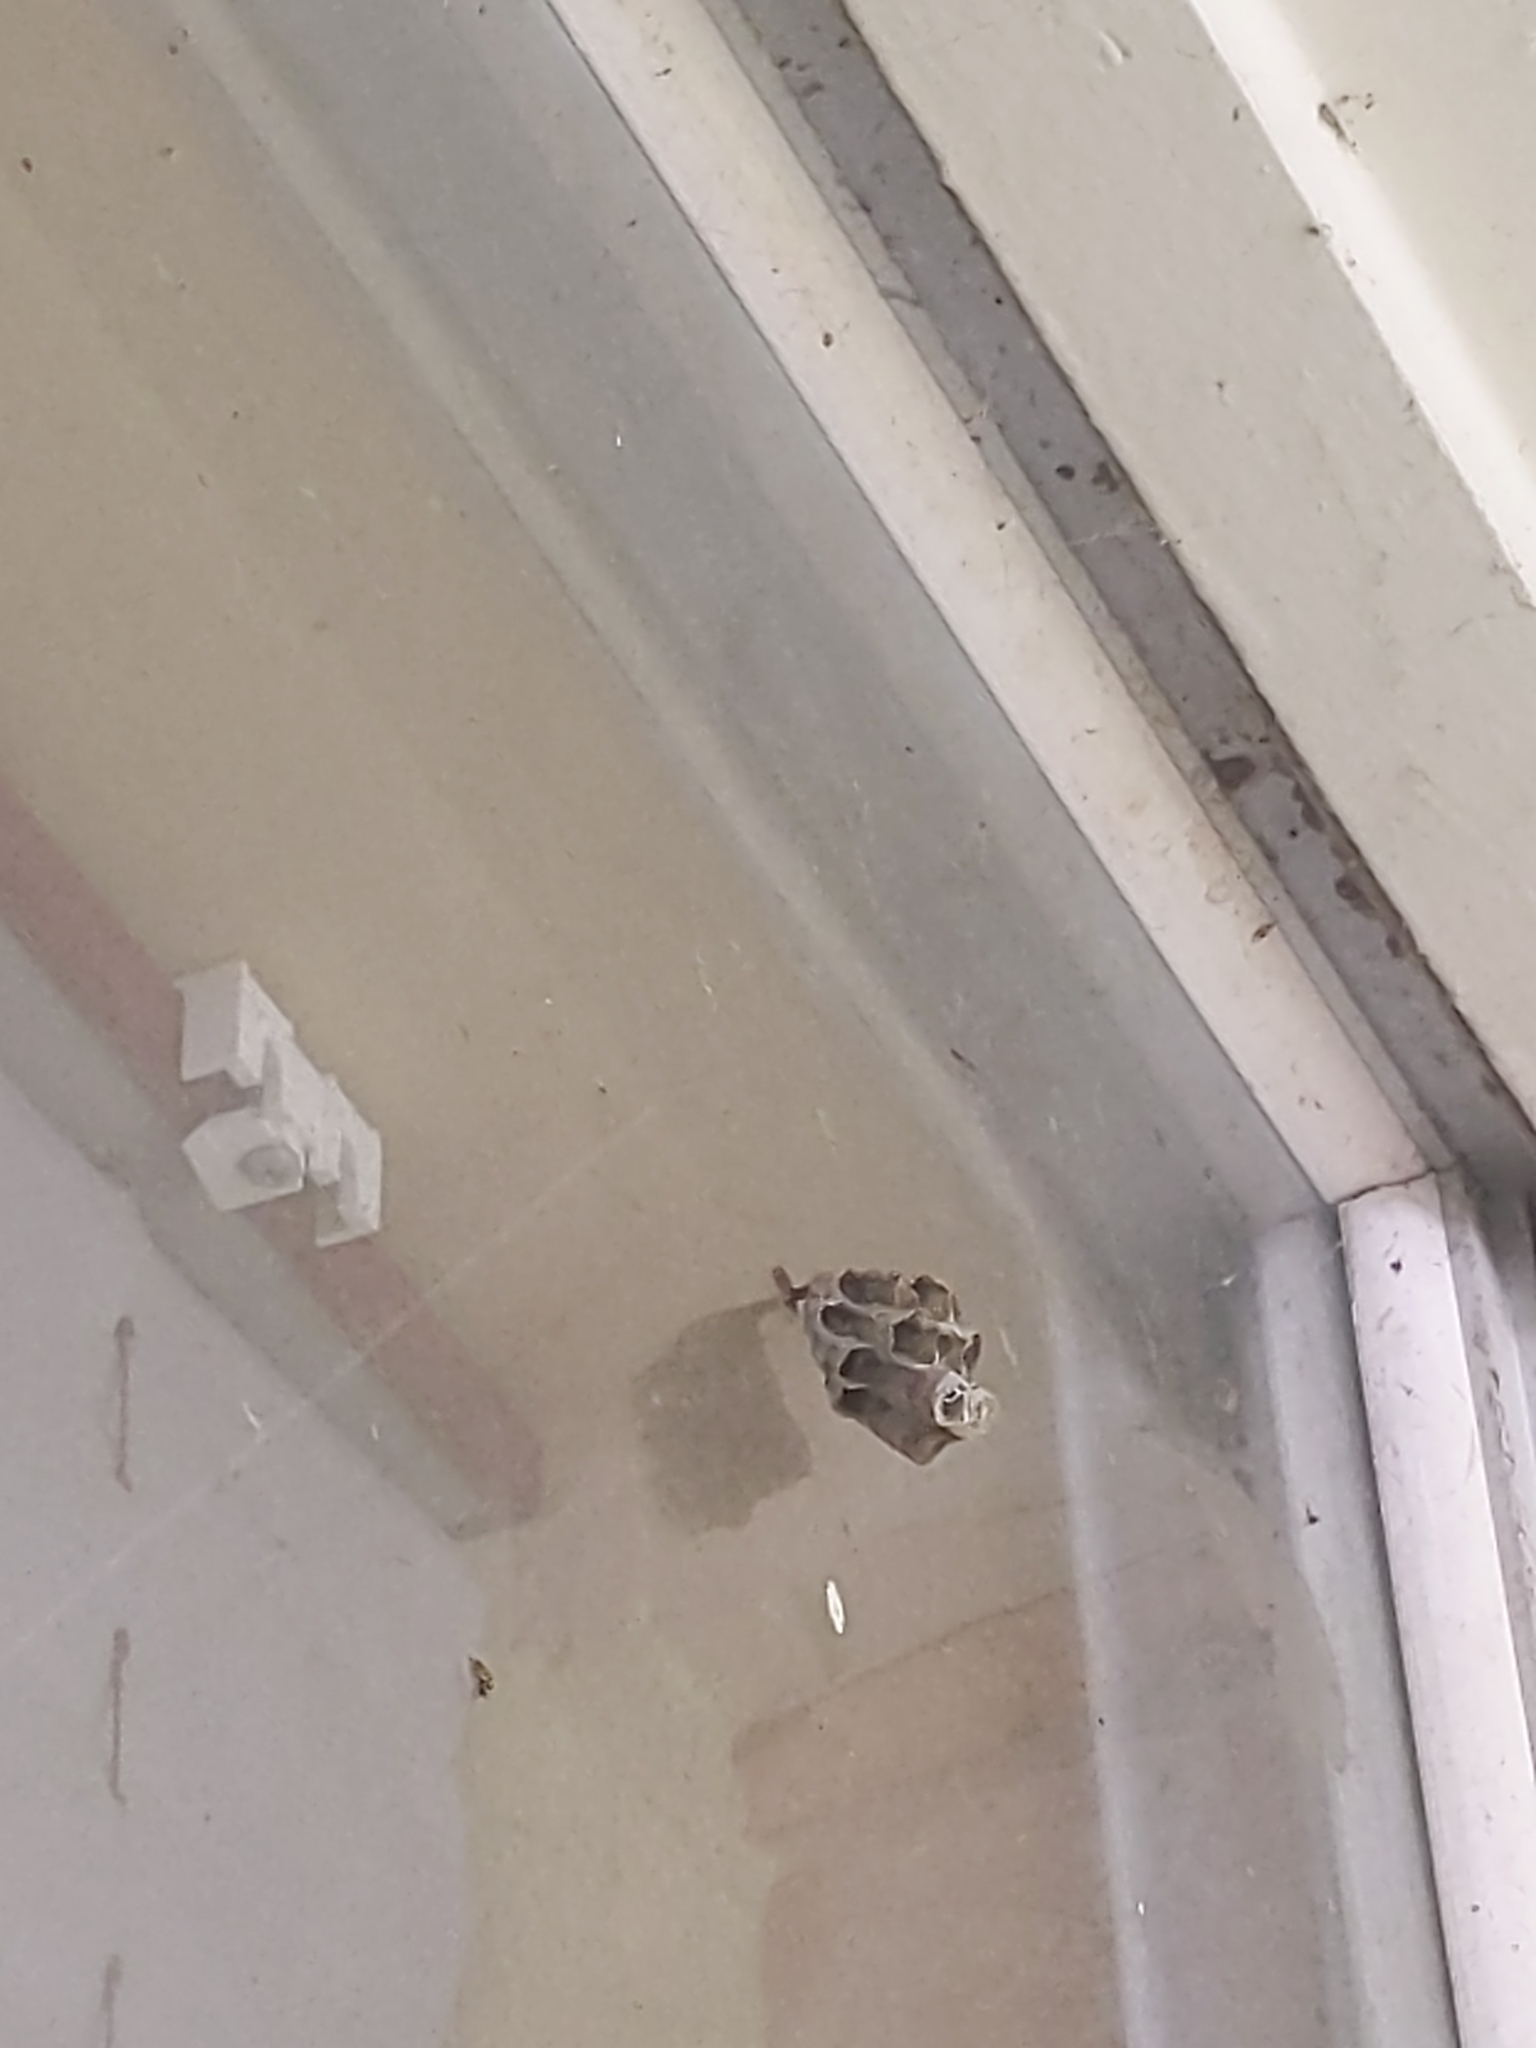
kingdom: Animalia
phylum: Arthropoda
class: Insecta
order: Hymenoptera
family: Vespidae
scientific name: Vespidae
